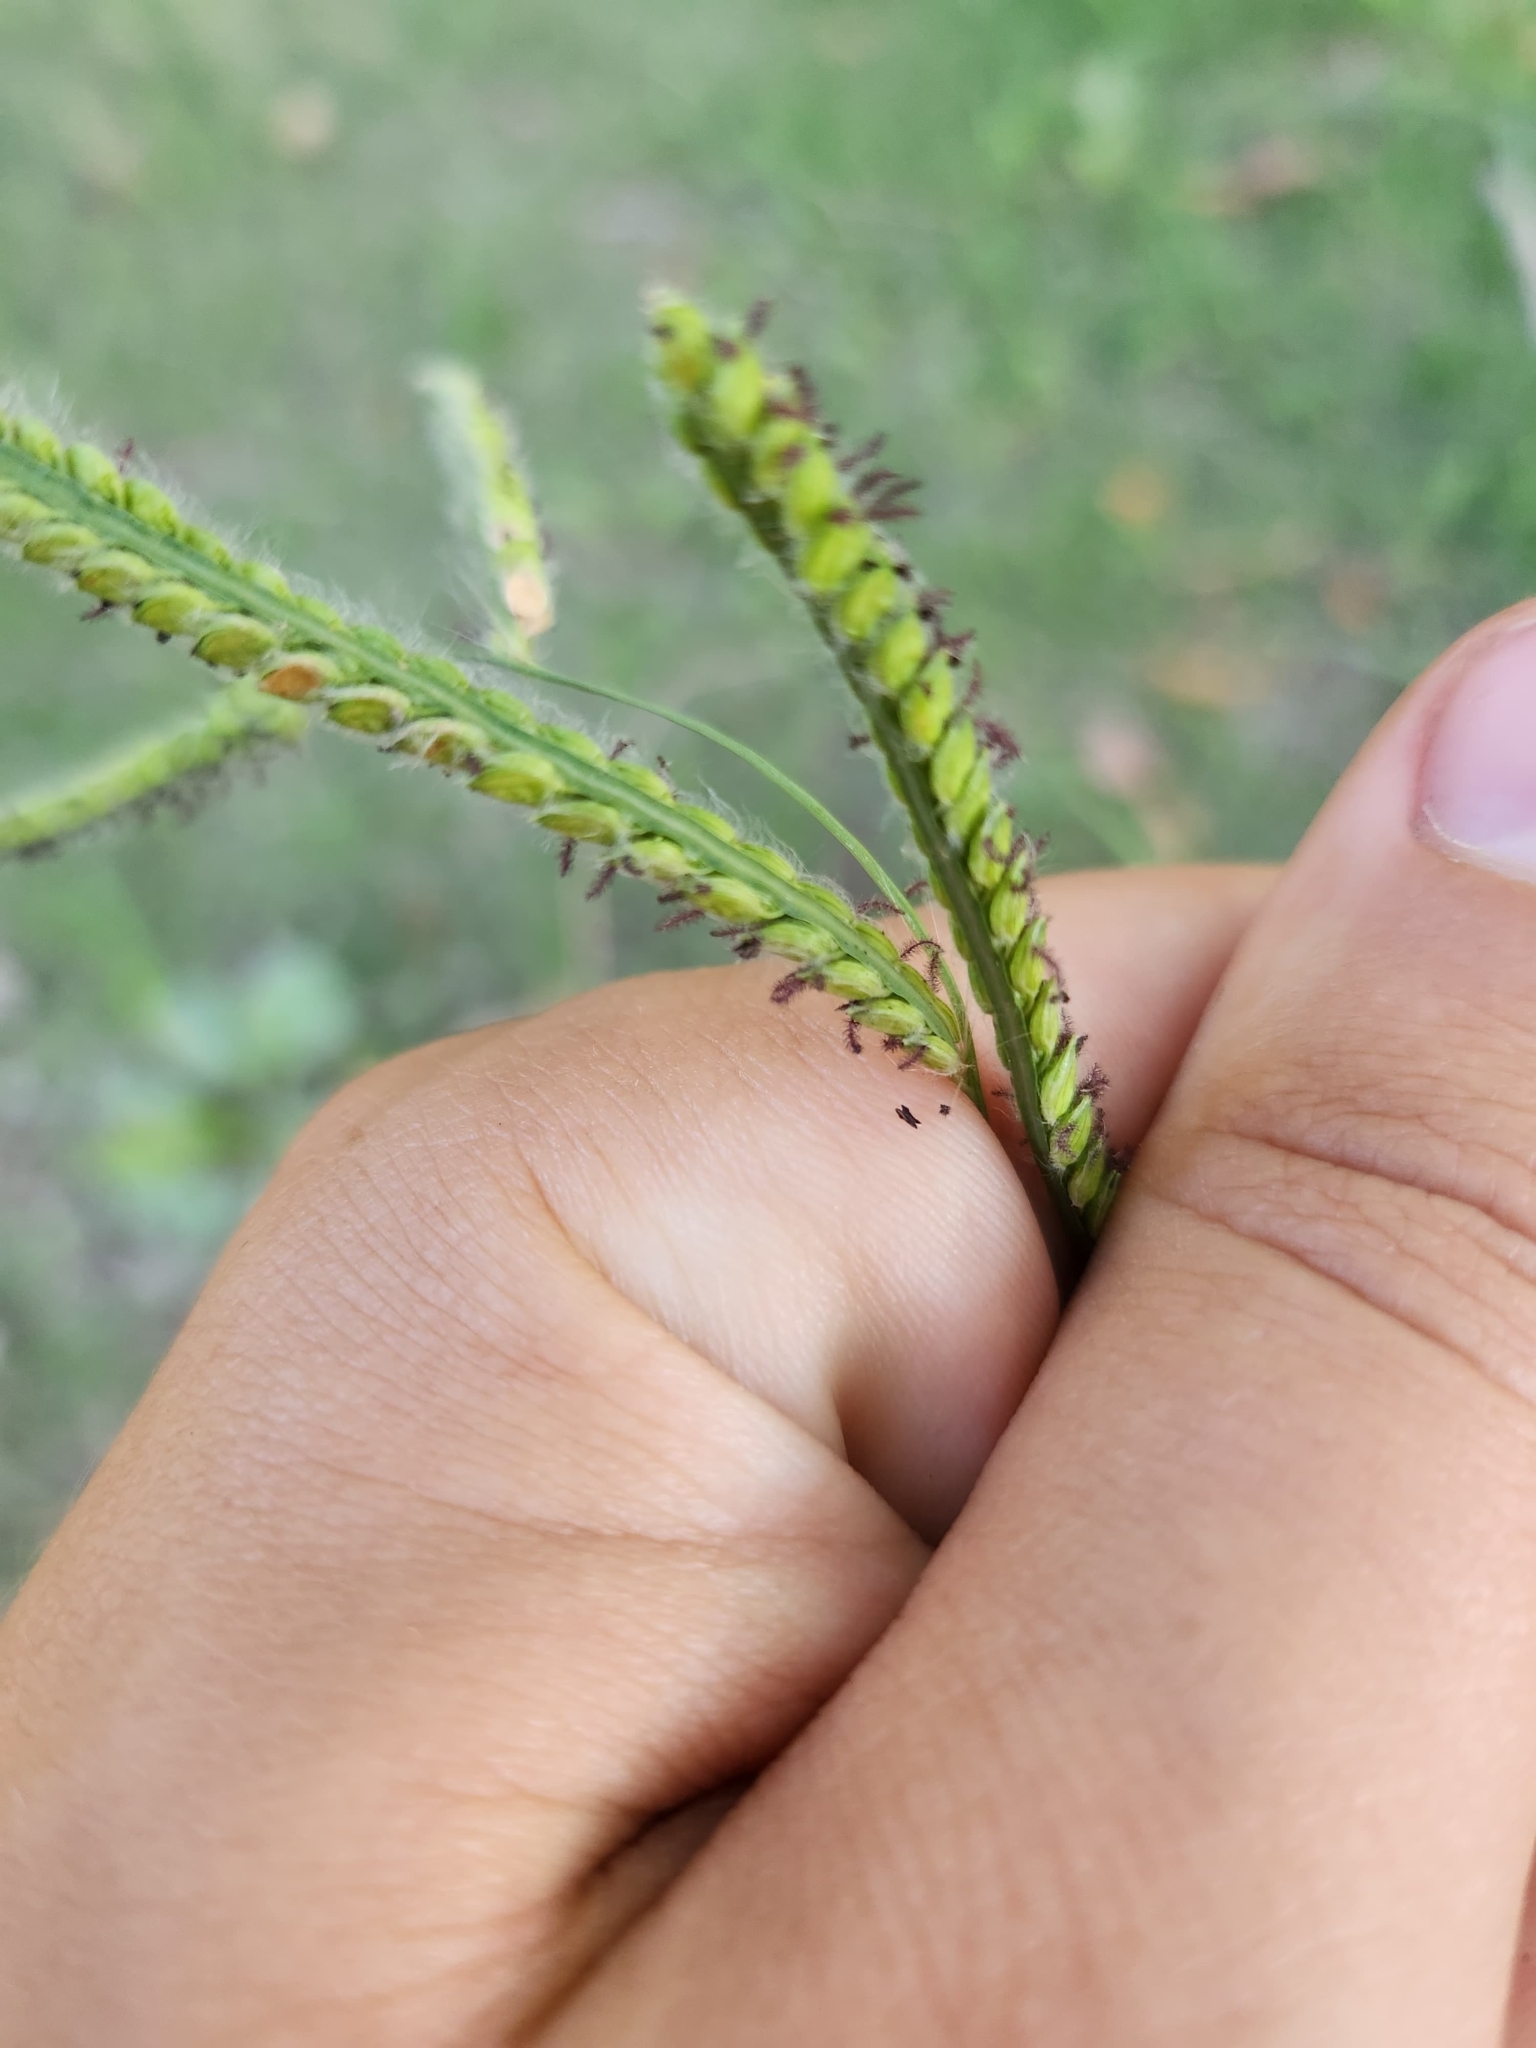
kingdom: Plantae
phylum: Tracheophyta
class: Liliopsida
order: Poales
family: Poaceae
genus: Paspalum
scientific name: Paspalum dilatatum
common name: Dallisgrass
